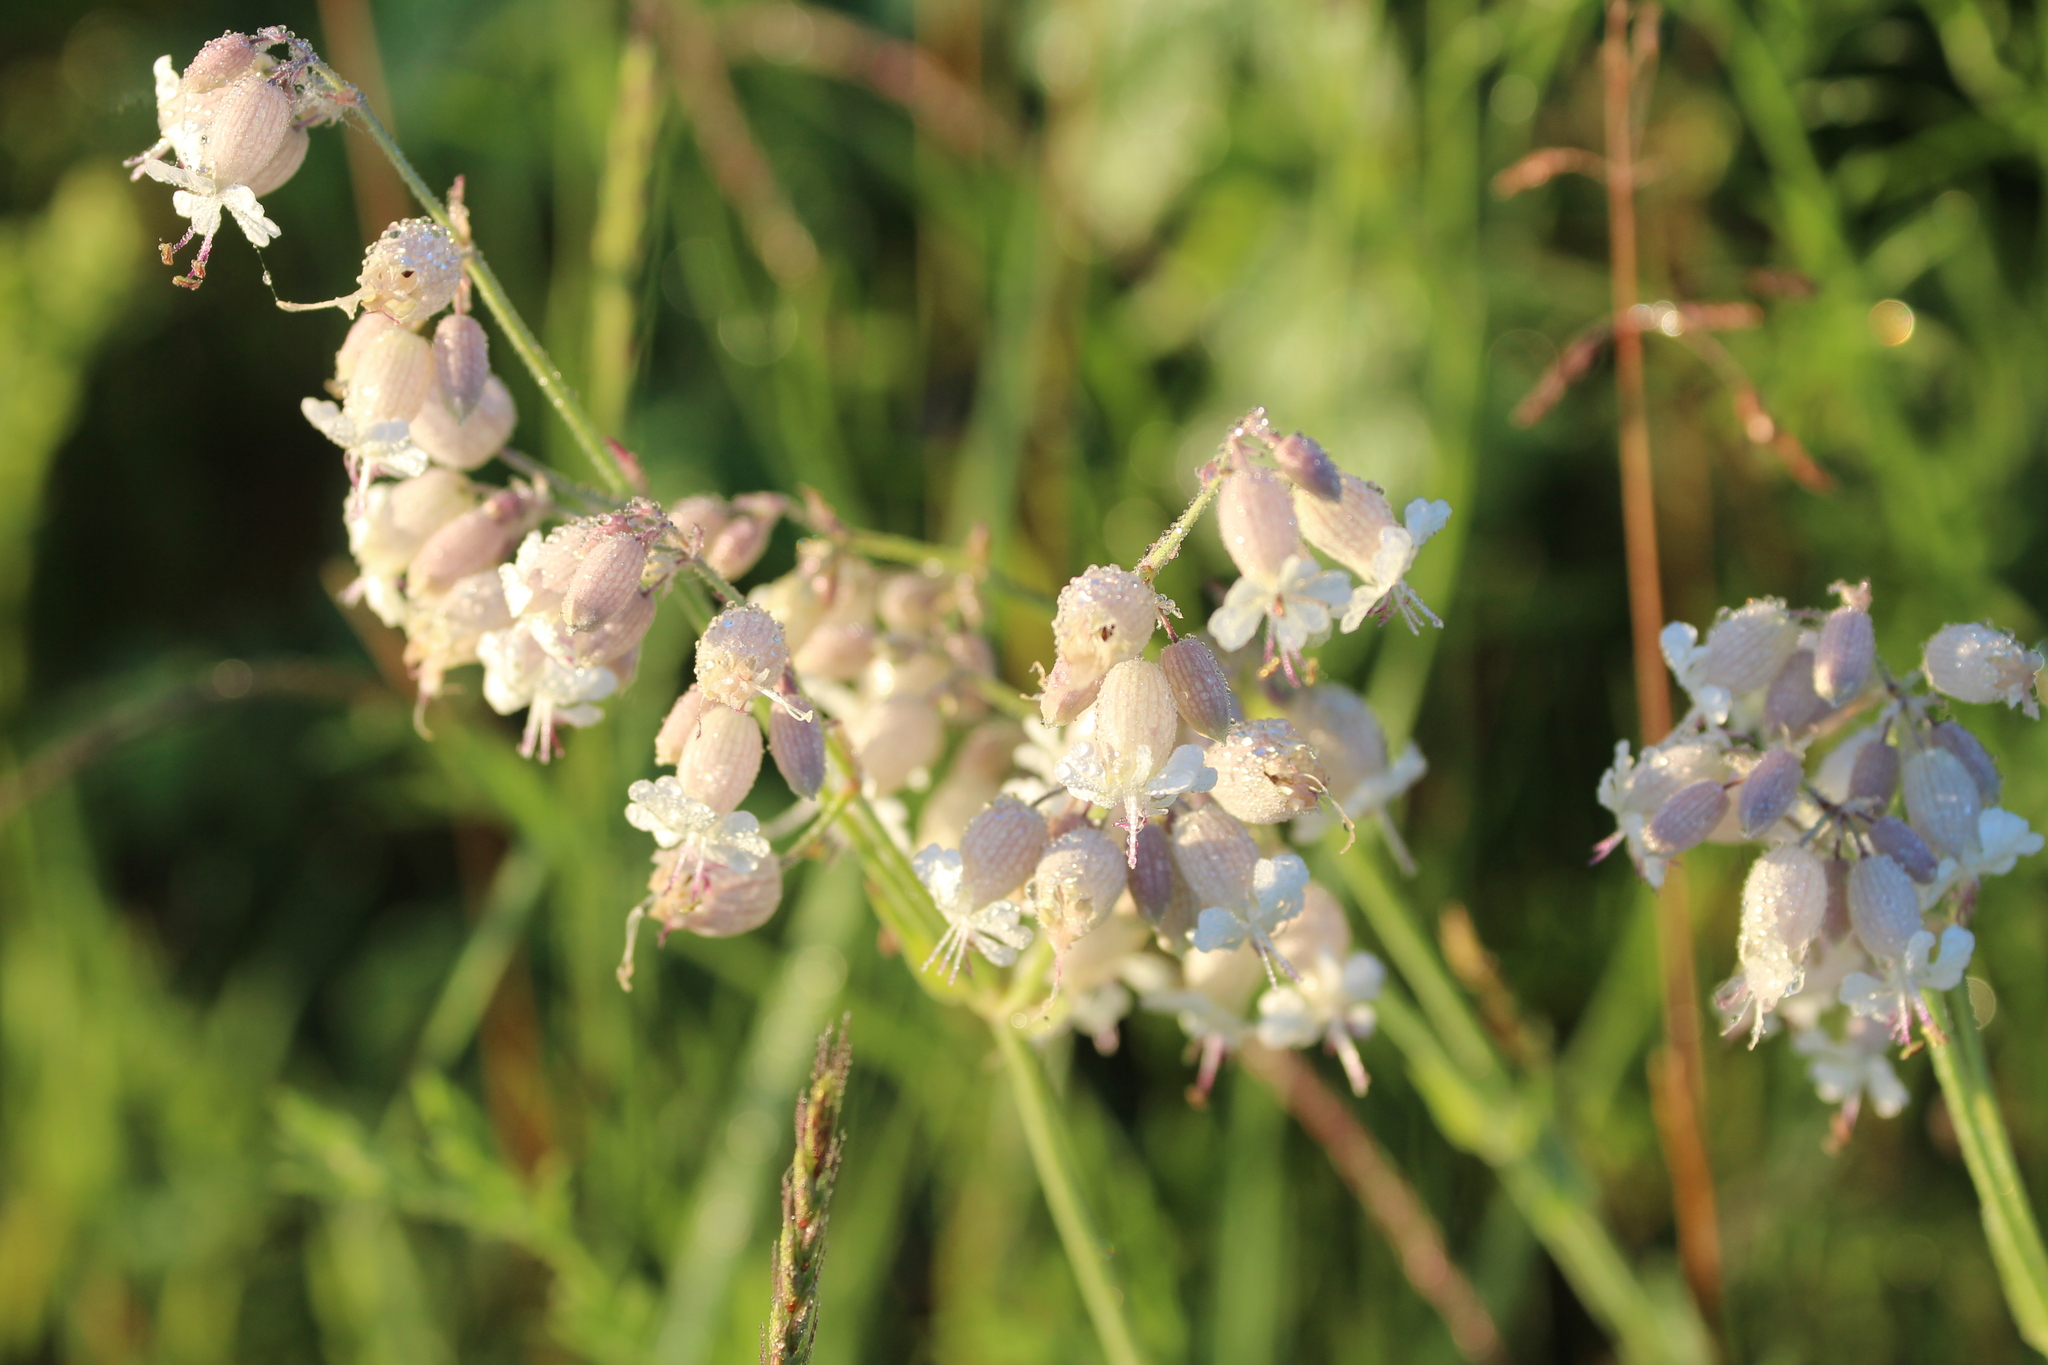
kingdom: Plantae
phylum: Tracheophyta
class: Magnoliopsida
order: Caryophyllales
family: Caryophyllaceae
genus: Silene
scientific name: Silene vulgaris
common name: Bladder campion
